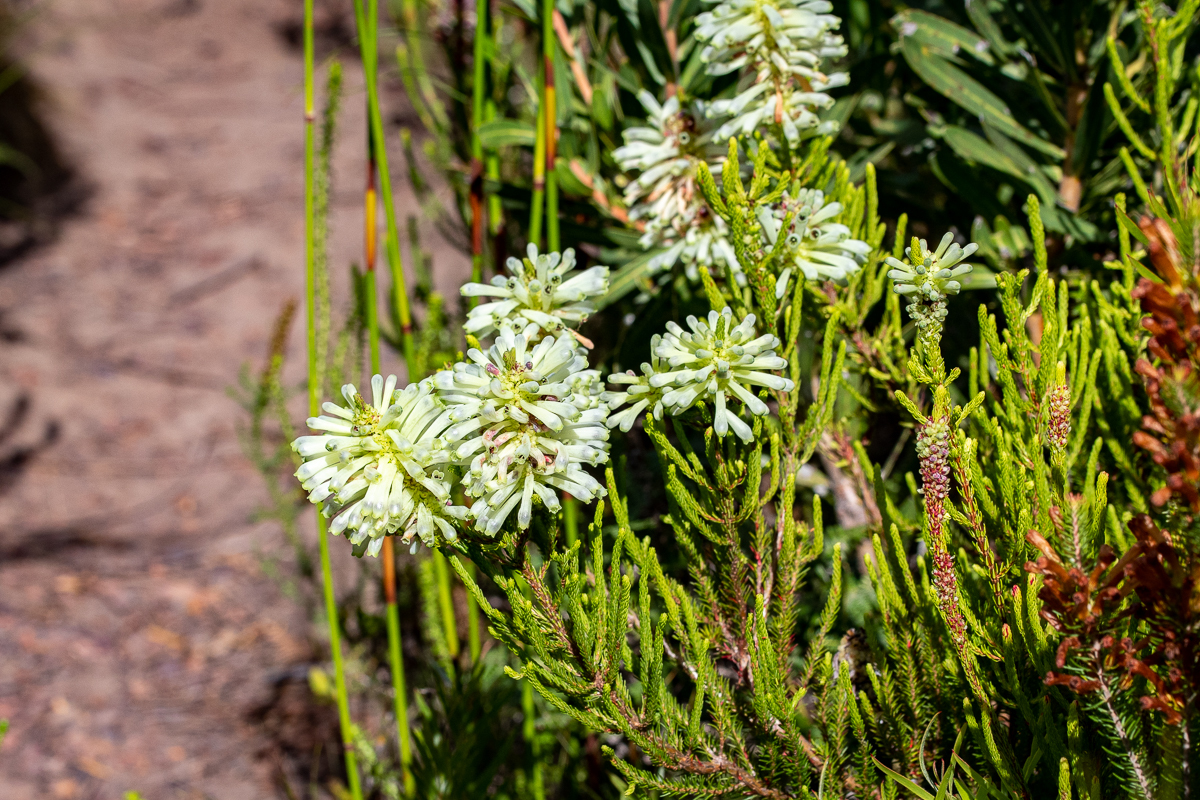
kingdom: Plantae
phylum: Tracheophyta
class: Magnoliopsida
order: Ericales
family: Ericaceae
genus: Erica
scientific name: Erica sessiliflora
